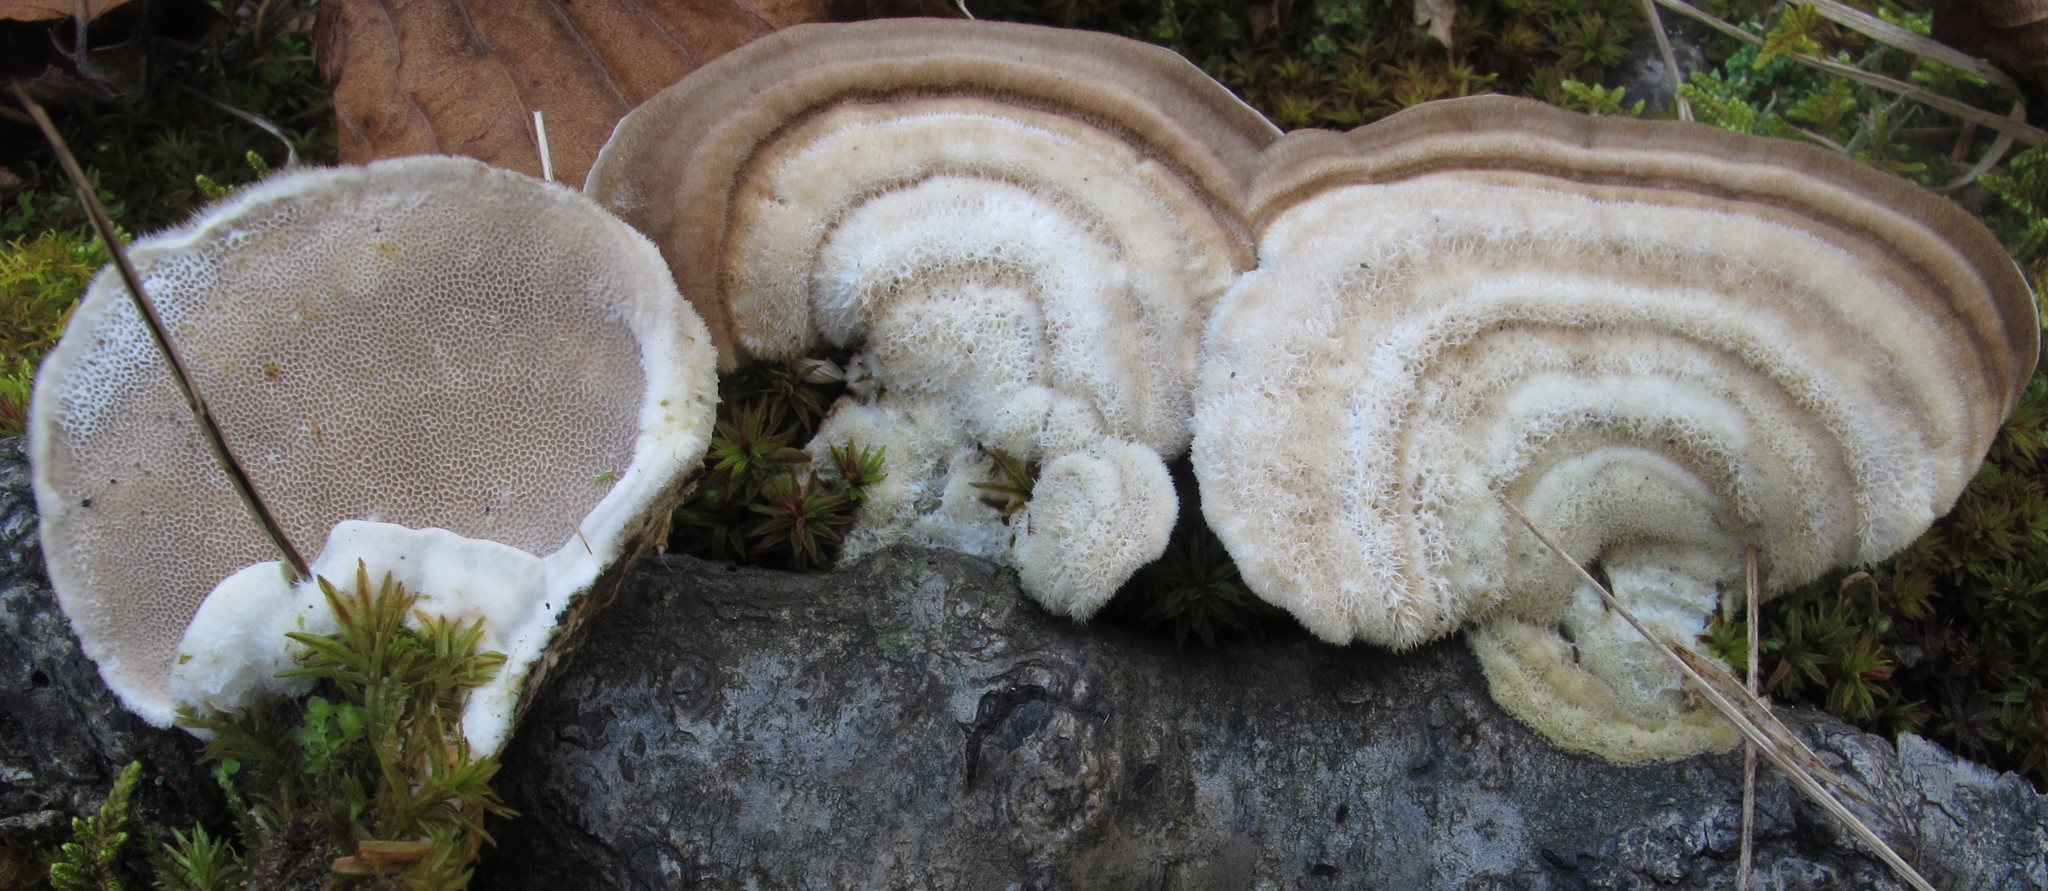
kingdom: Fungi
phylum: Basidiomycota
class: Agaricomycetes
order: Polyporales
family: Polyporaceae
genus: Trametes
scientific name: Trametes hirsuta
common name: Hairy bracket
